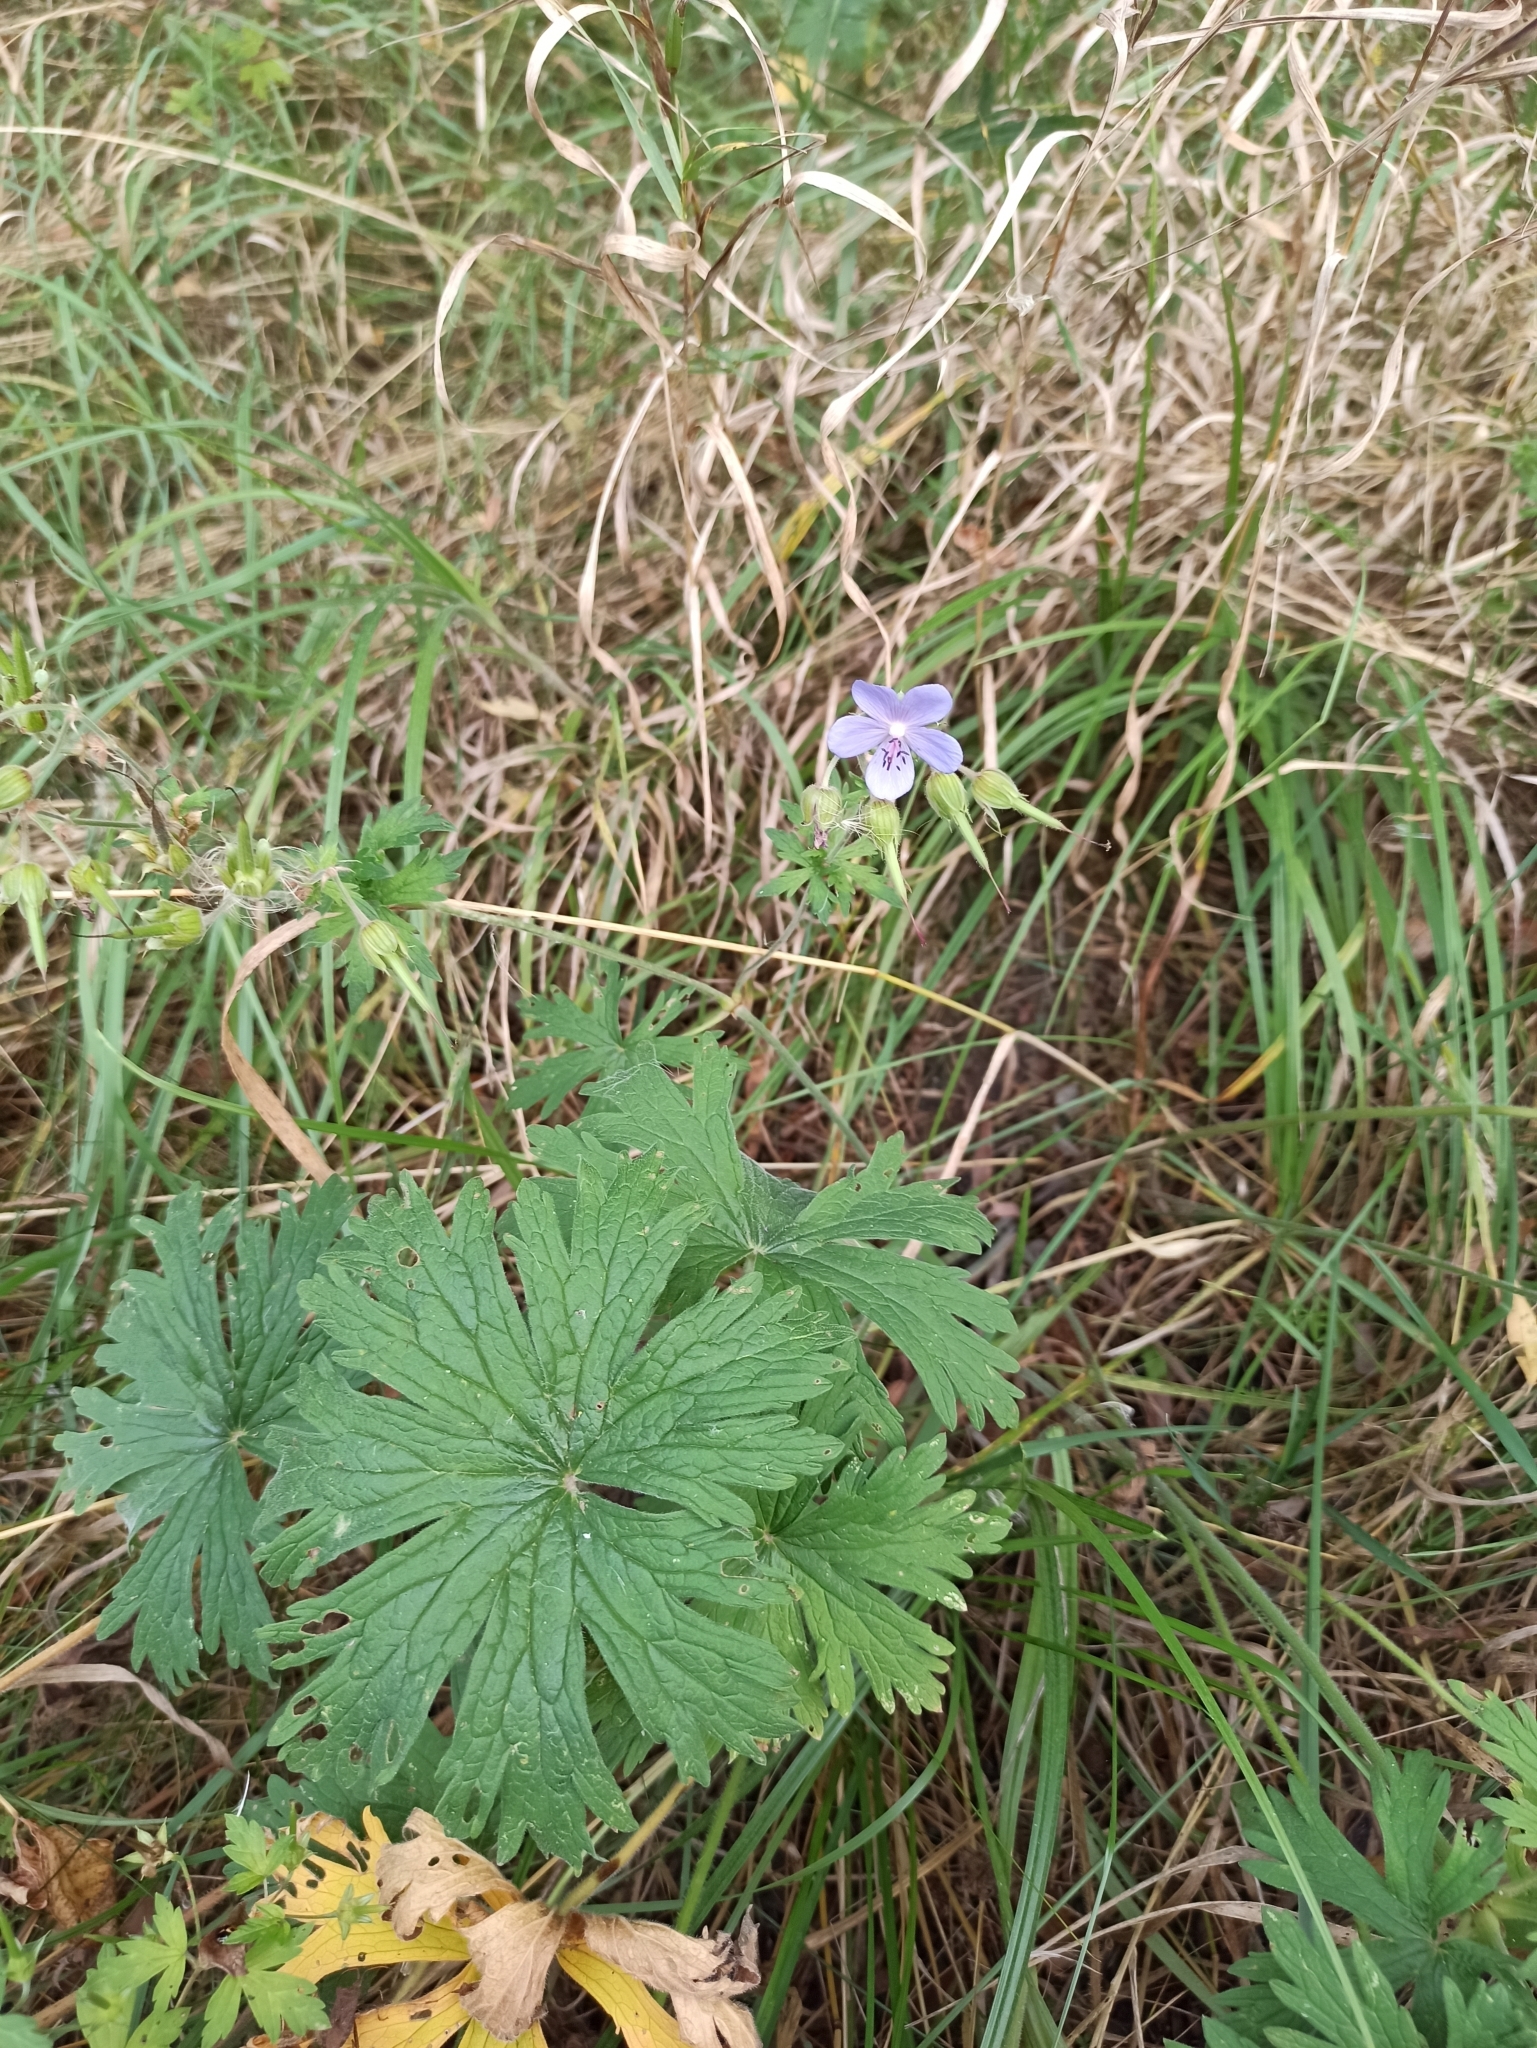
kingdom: Plantae
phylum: Tracheophyta
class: Magnoliopsida
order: Geraniales
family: Geraniaceae
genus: Geranium
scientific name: Geranium pratense
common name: Meadow crane's-bill
